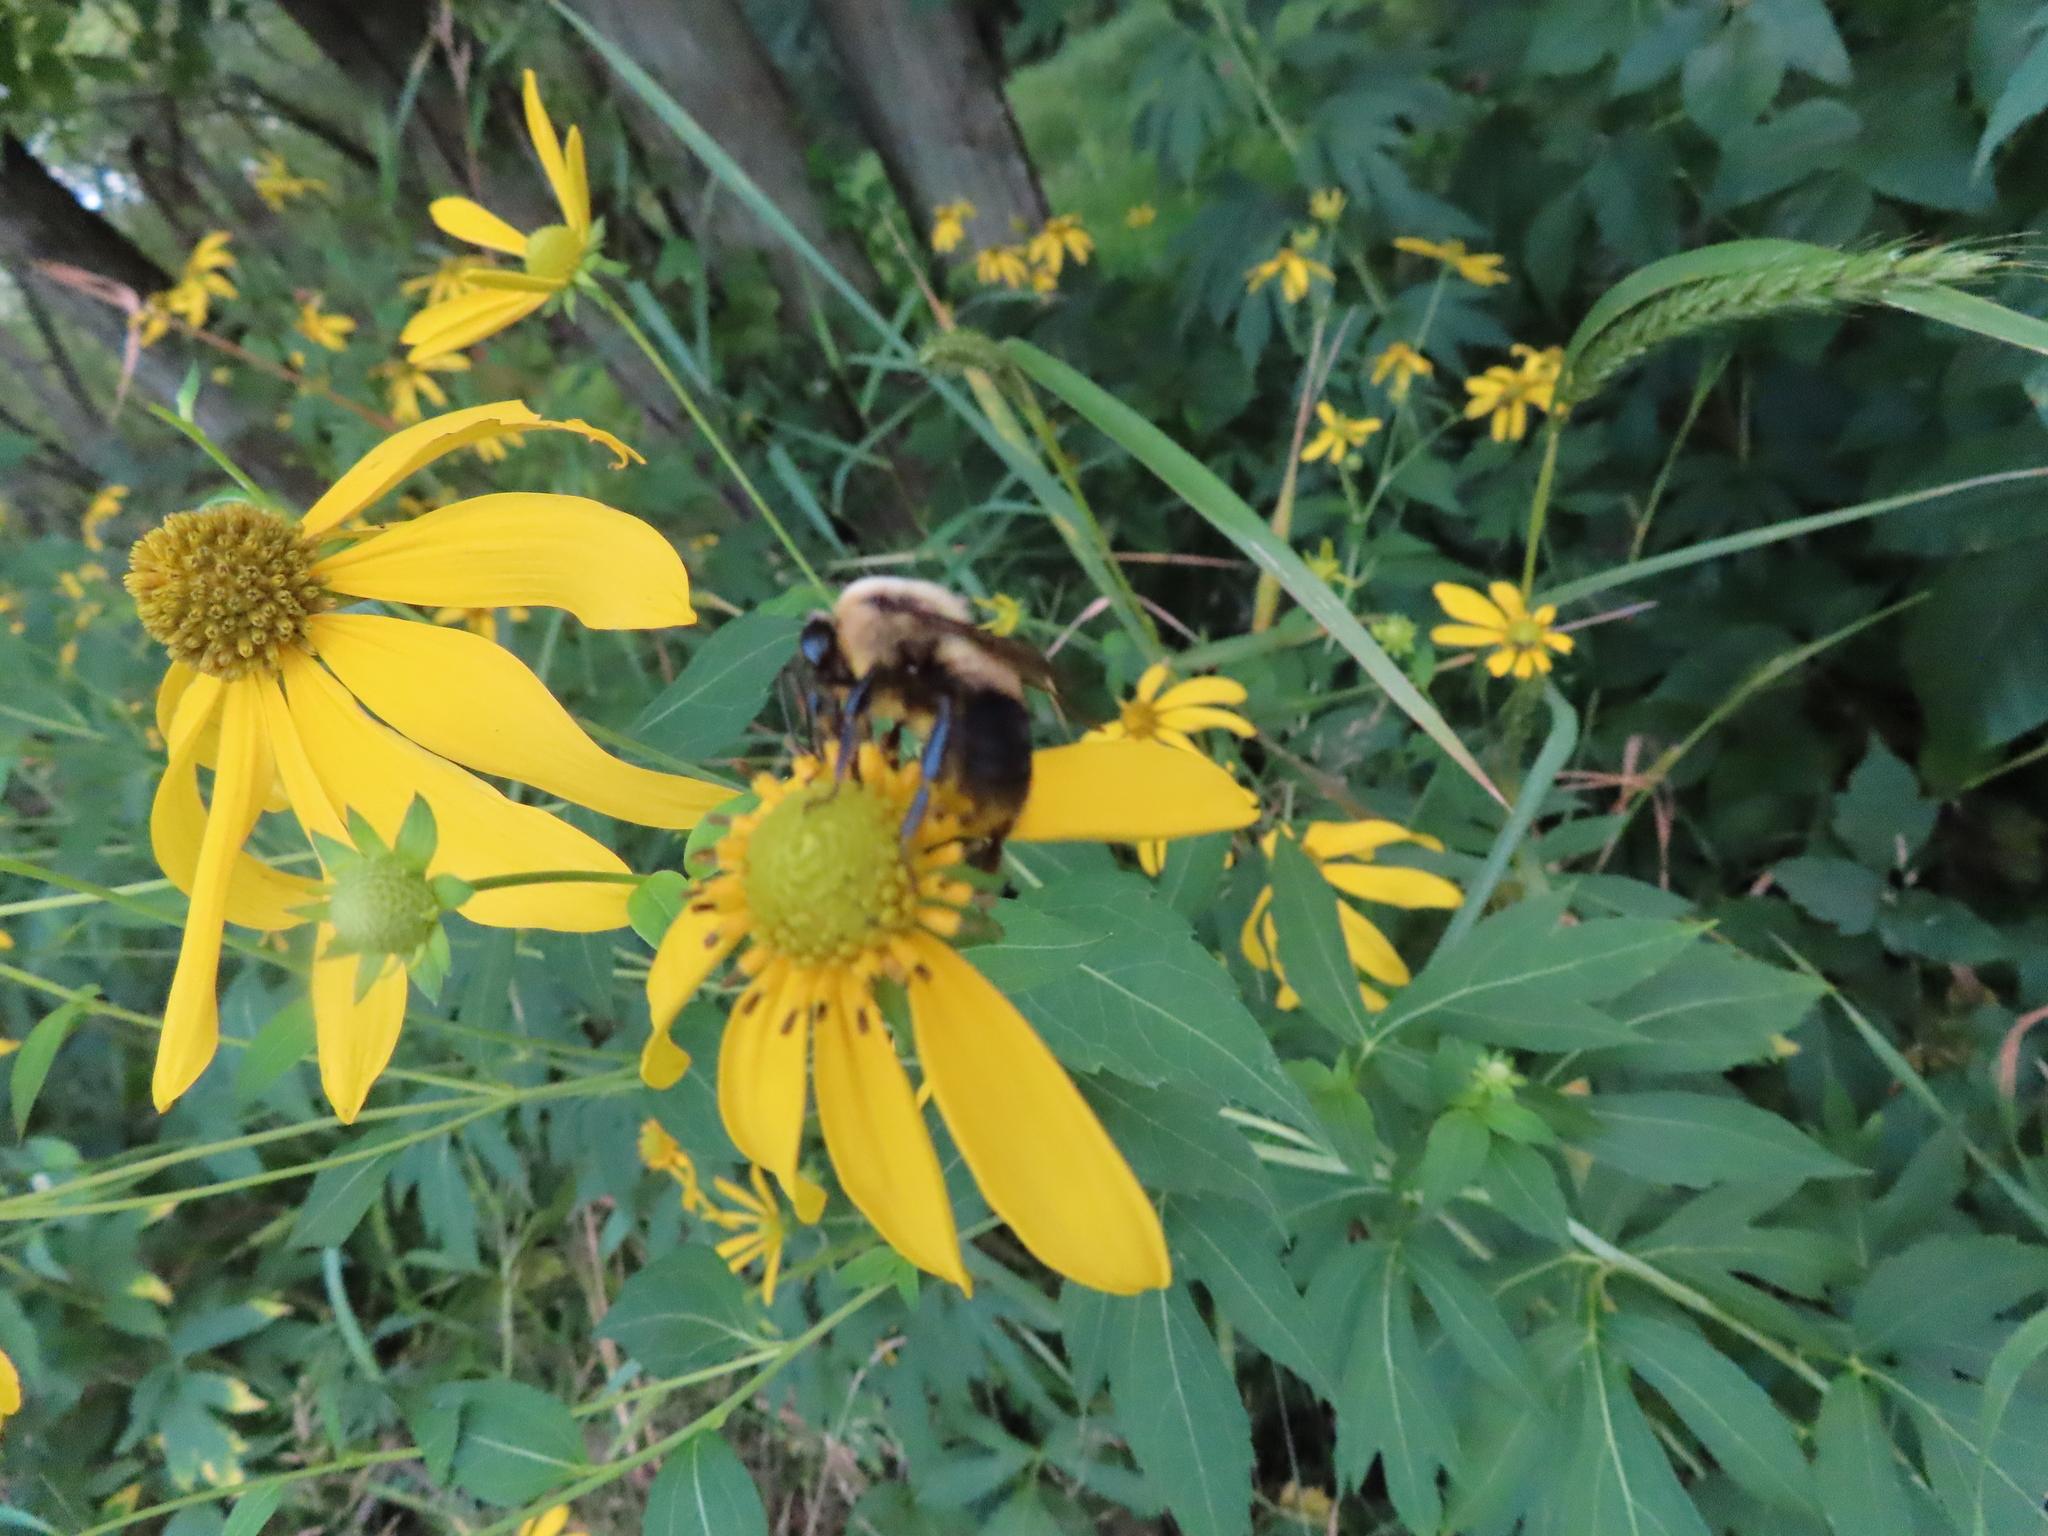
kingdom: Animalia
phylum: Arthropoda
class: Insecta
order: Hymenoptera
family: Apidae
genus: Bombus
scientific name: Bombus griseocollis
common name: Brown-belted bumble bee
